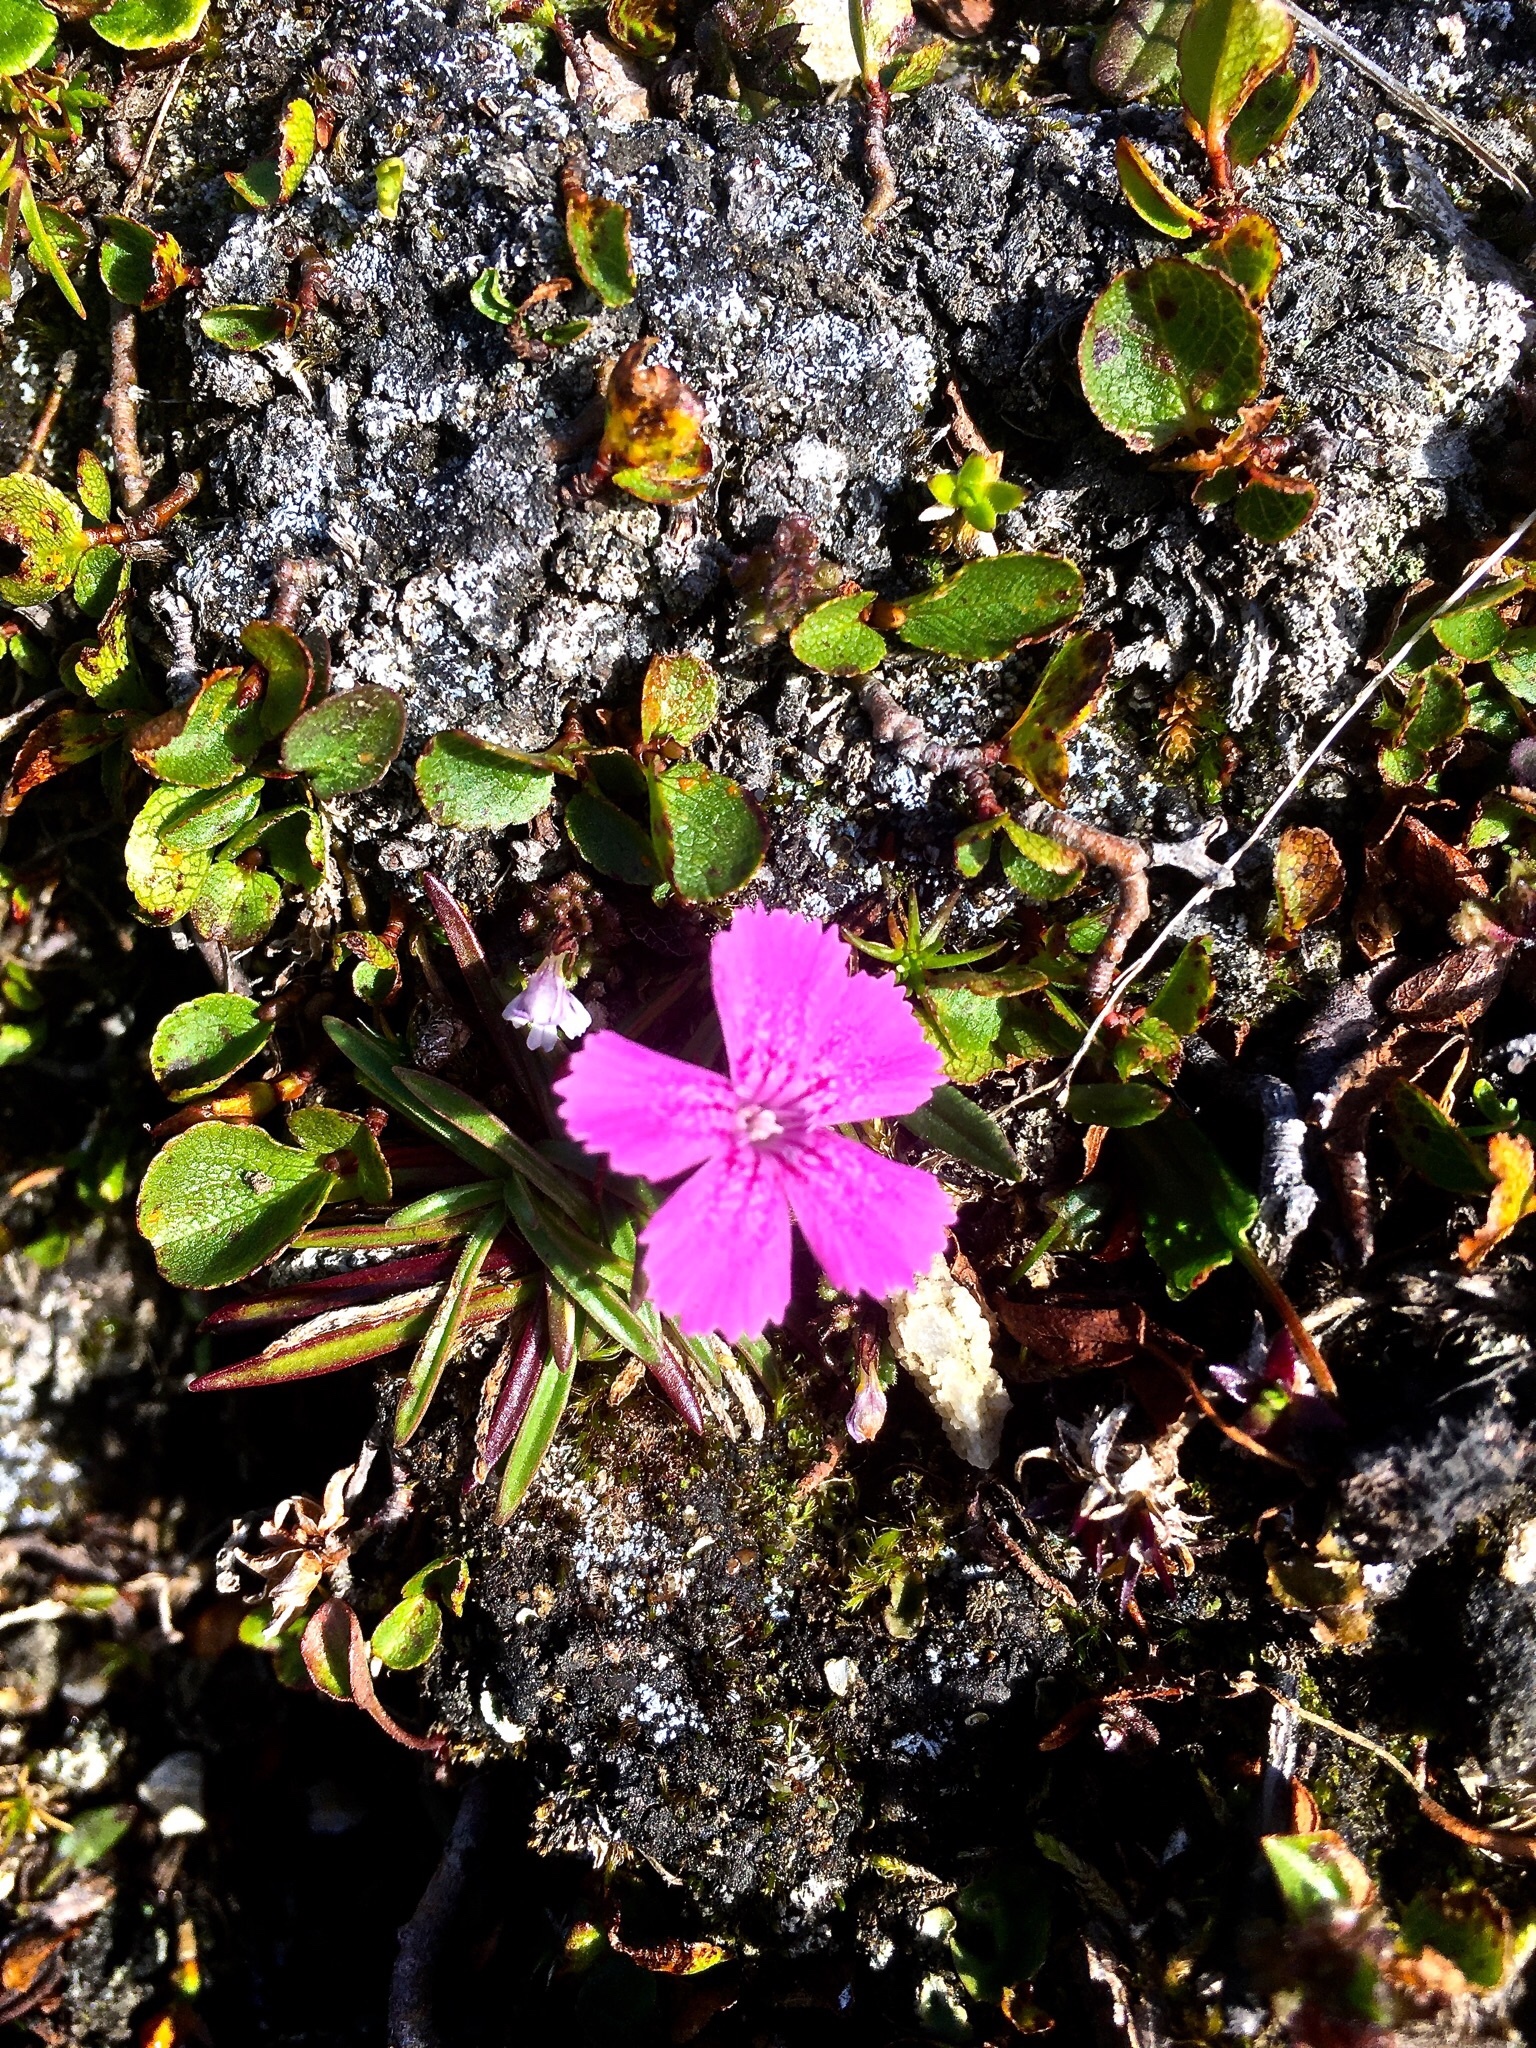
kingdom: Plantae
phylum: Tracheophyta
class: Magnoliopsida
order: Caryophyllales
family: Caryophyllaceae
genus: Dianthus
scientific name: Dianthus glacialis
